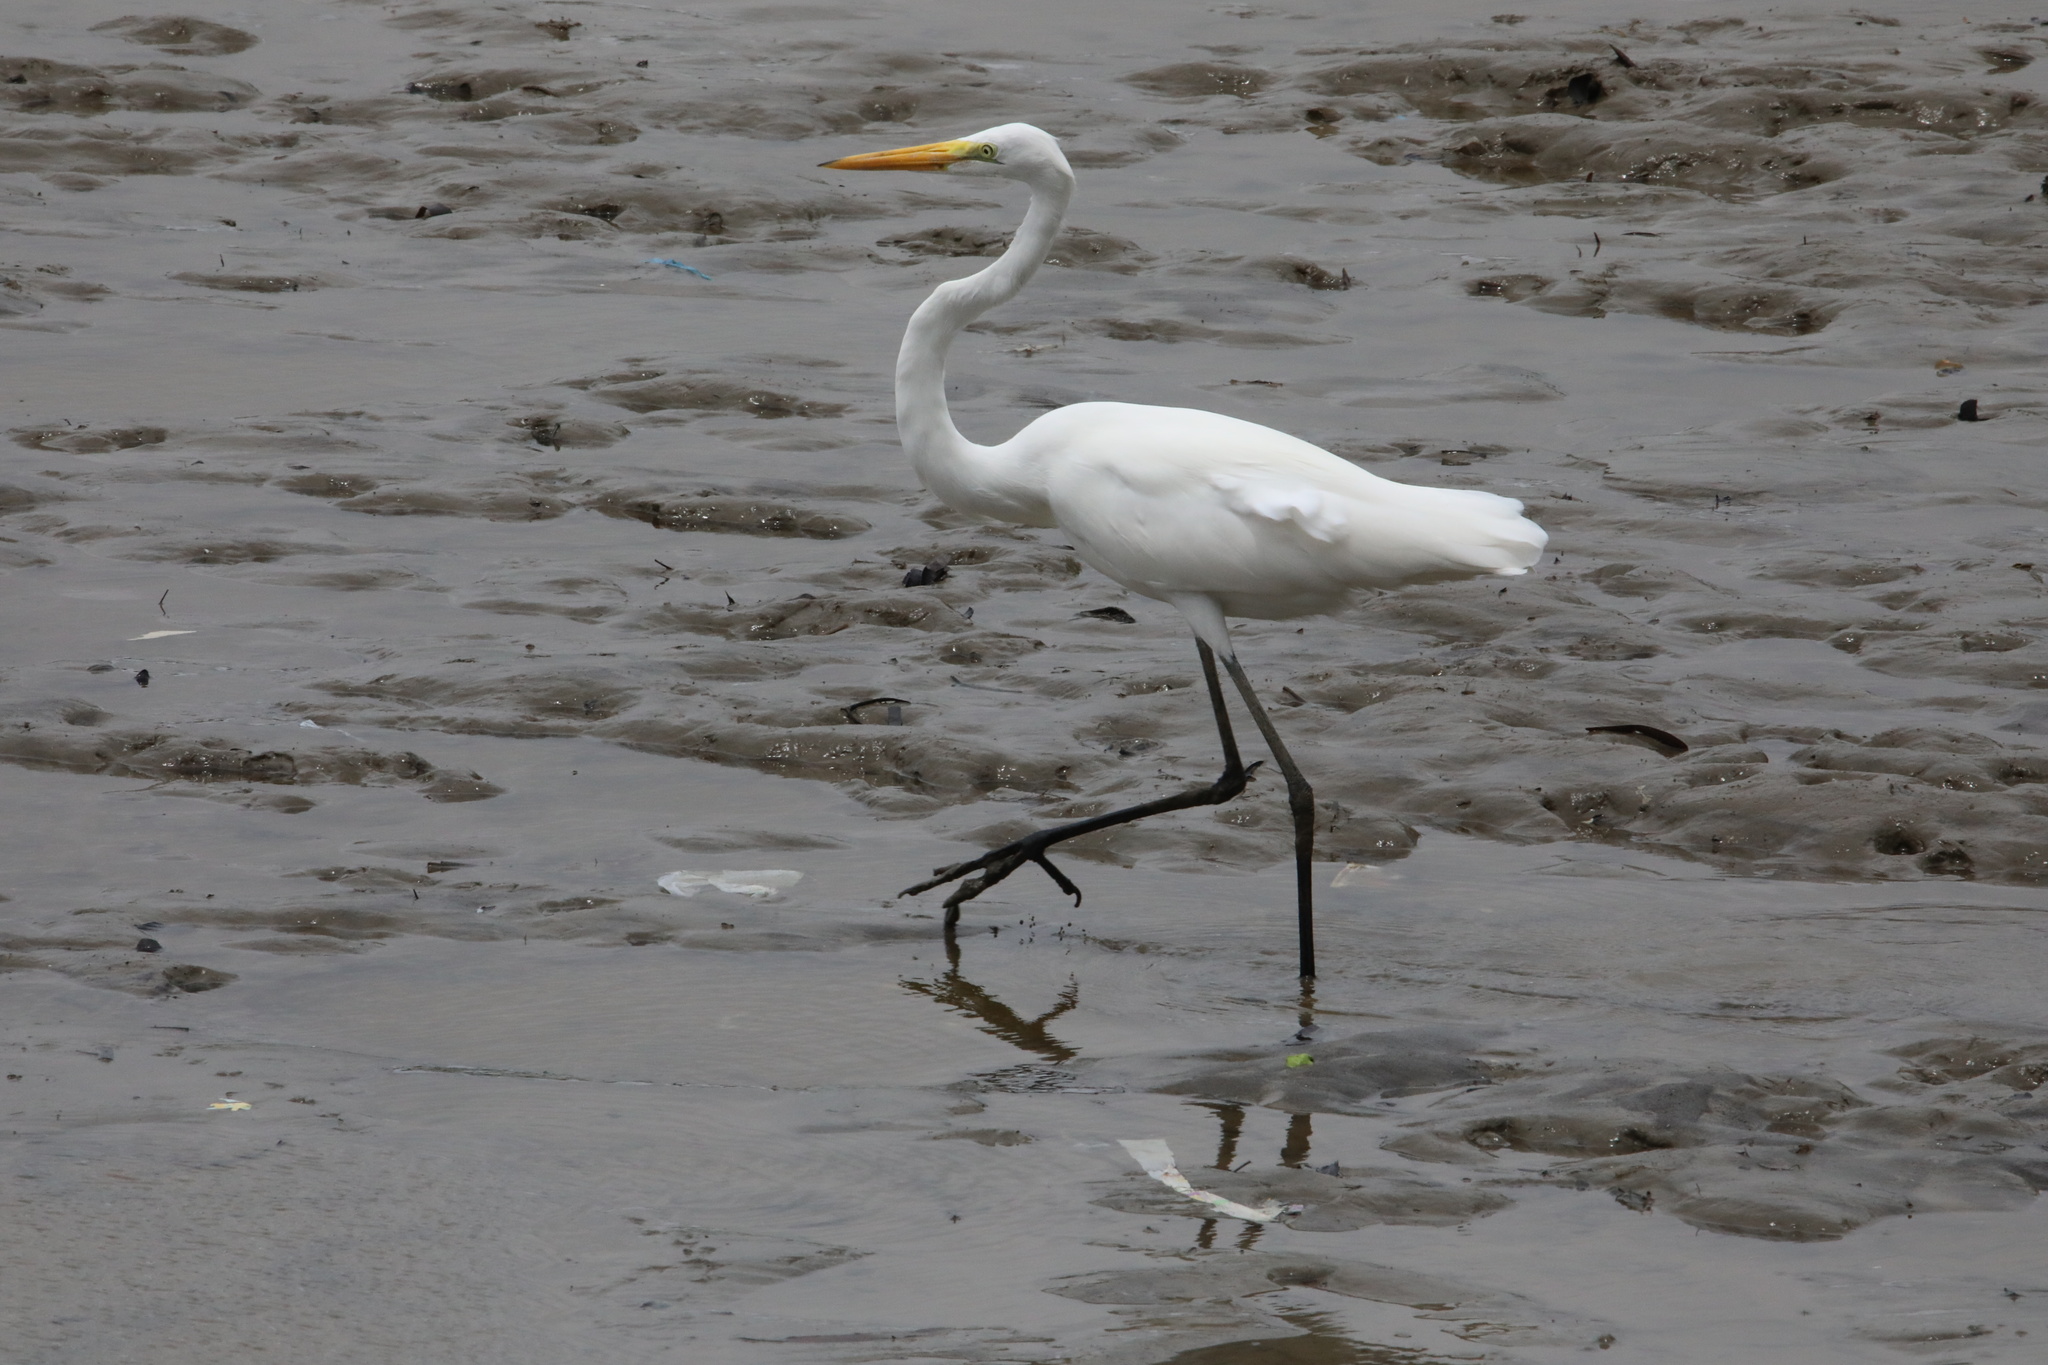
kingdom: Animalia
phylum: Chordata
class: Aves
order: Pelecaniformes
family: Ardeidae
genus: Ardea
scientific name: Ardea alba
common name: Great egret
